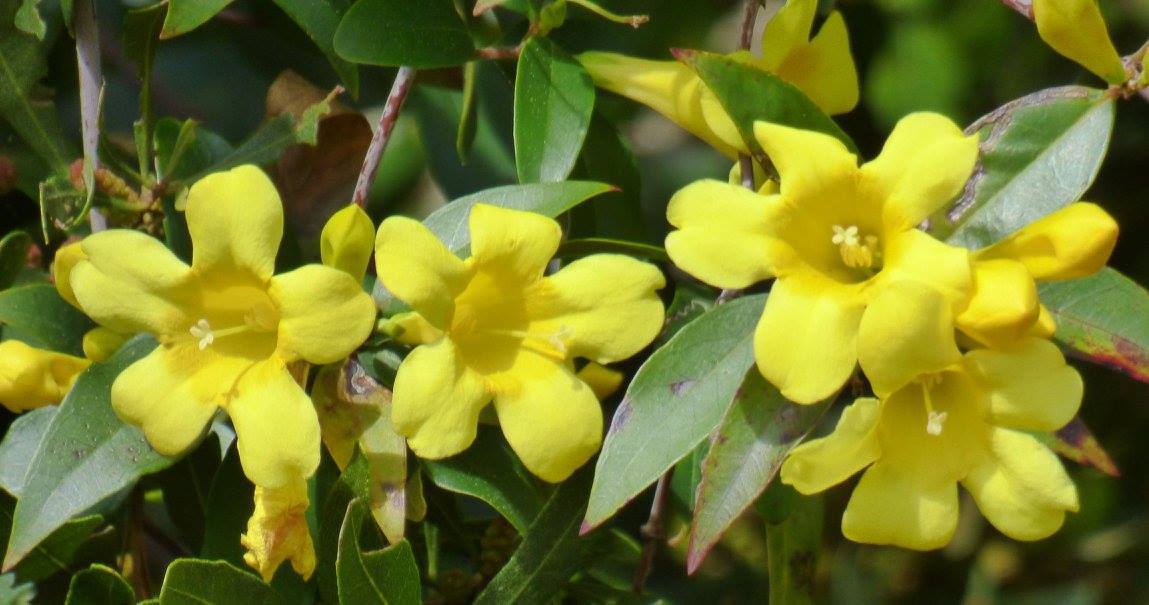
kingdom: Plantae
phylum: Tracheophyta
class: Magnoliopsida
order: Gentianales
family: Gelsemiaceae
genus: Gelsemium
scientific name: Gelsemium sempervirens
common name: Carolina-jasmine
